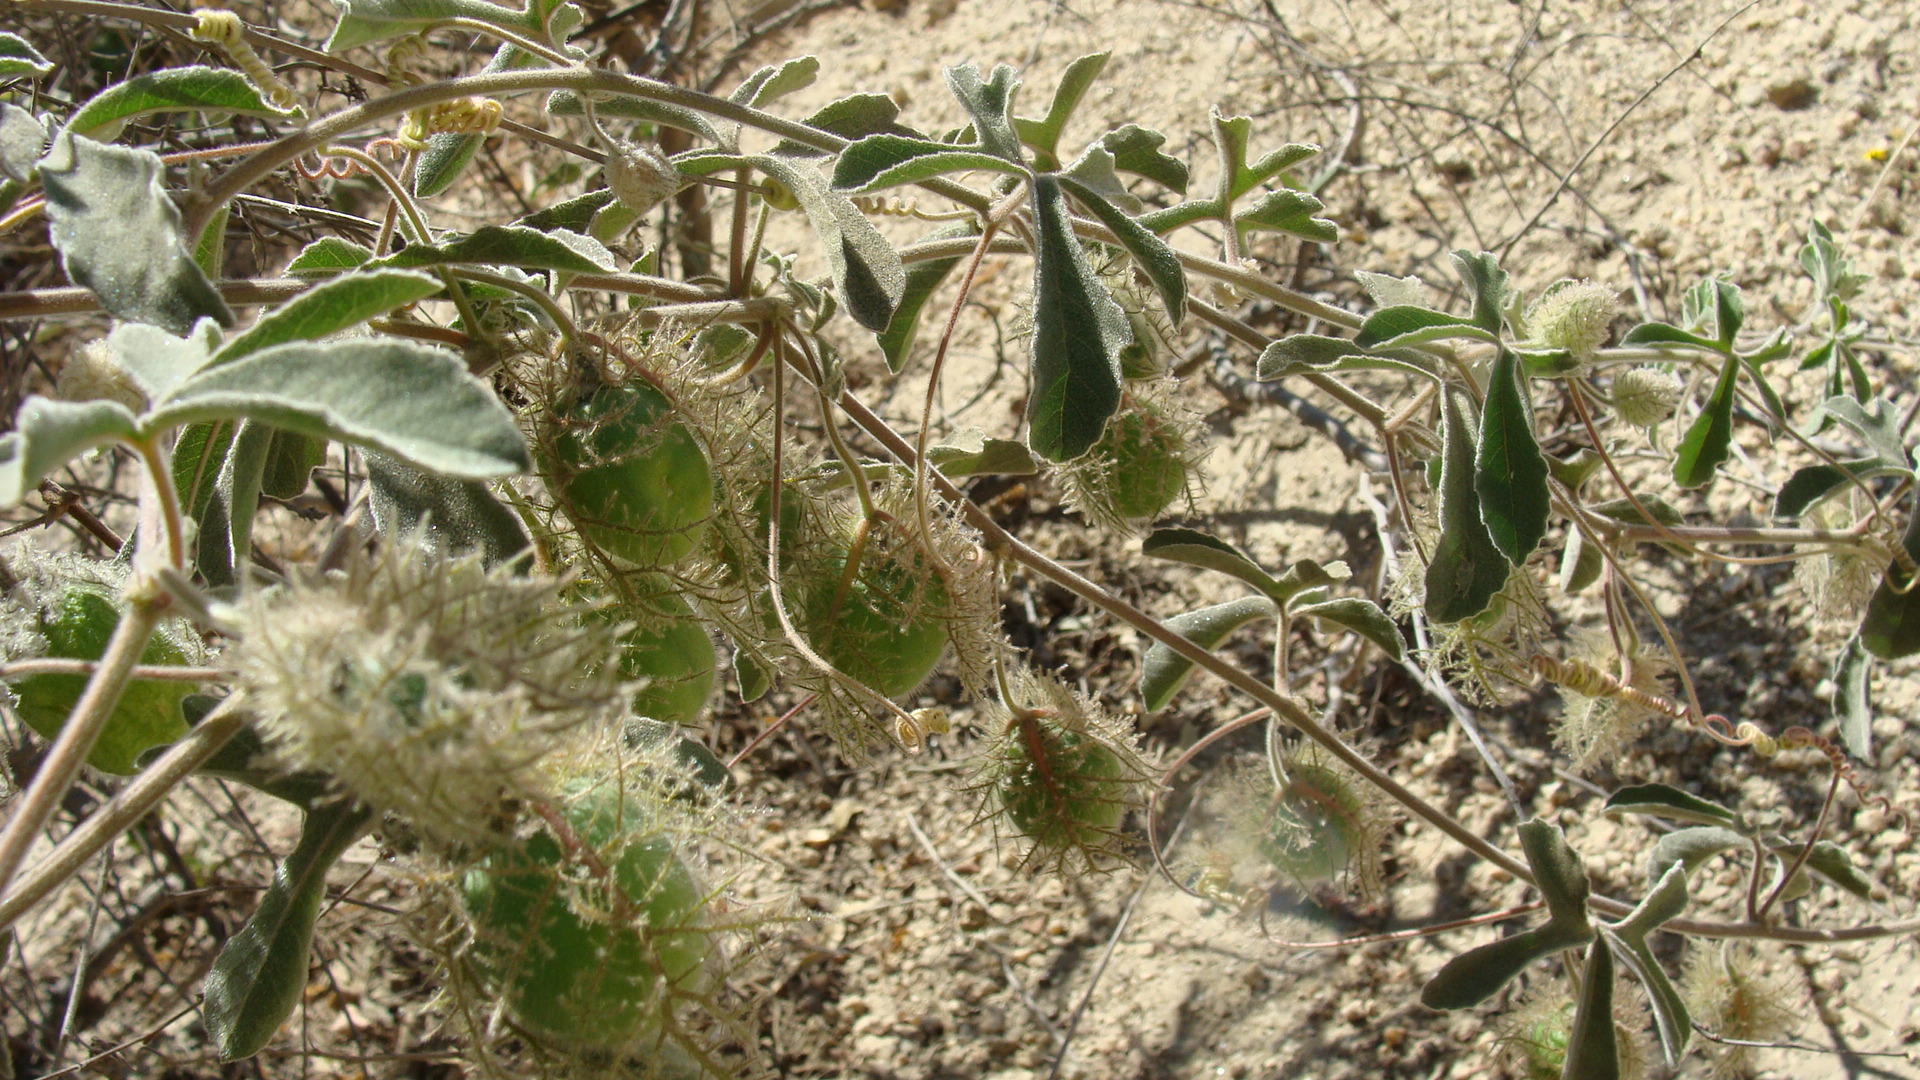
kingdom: Plantae
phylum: Tracheophyta
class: Magnoliopsida
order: Malpighiales
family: Passifloraceae
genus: Passiflora
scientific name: Passiflora pentaschista
